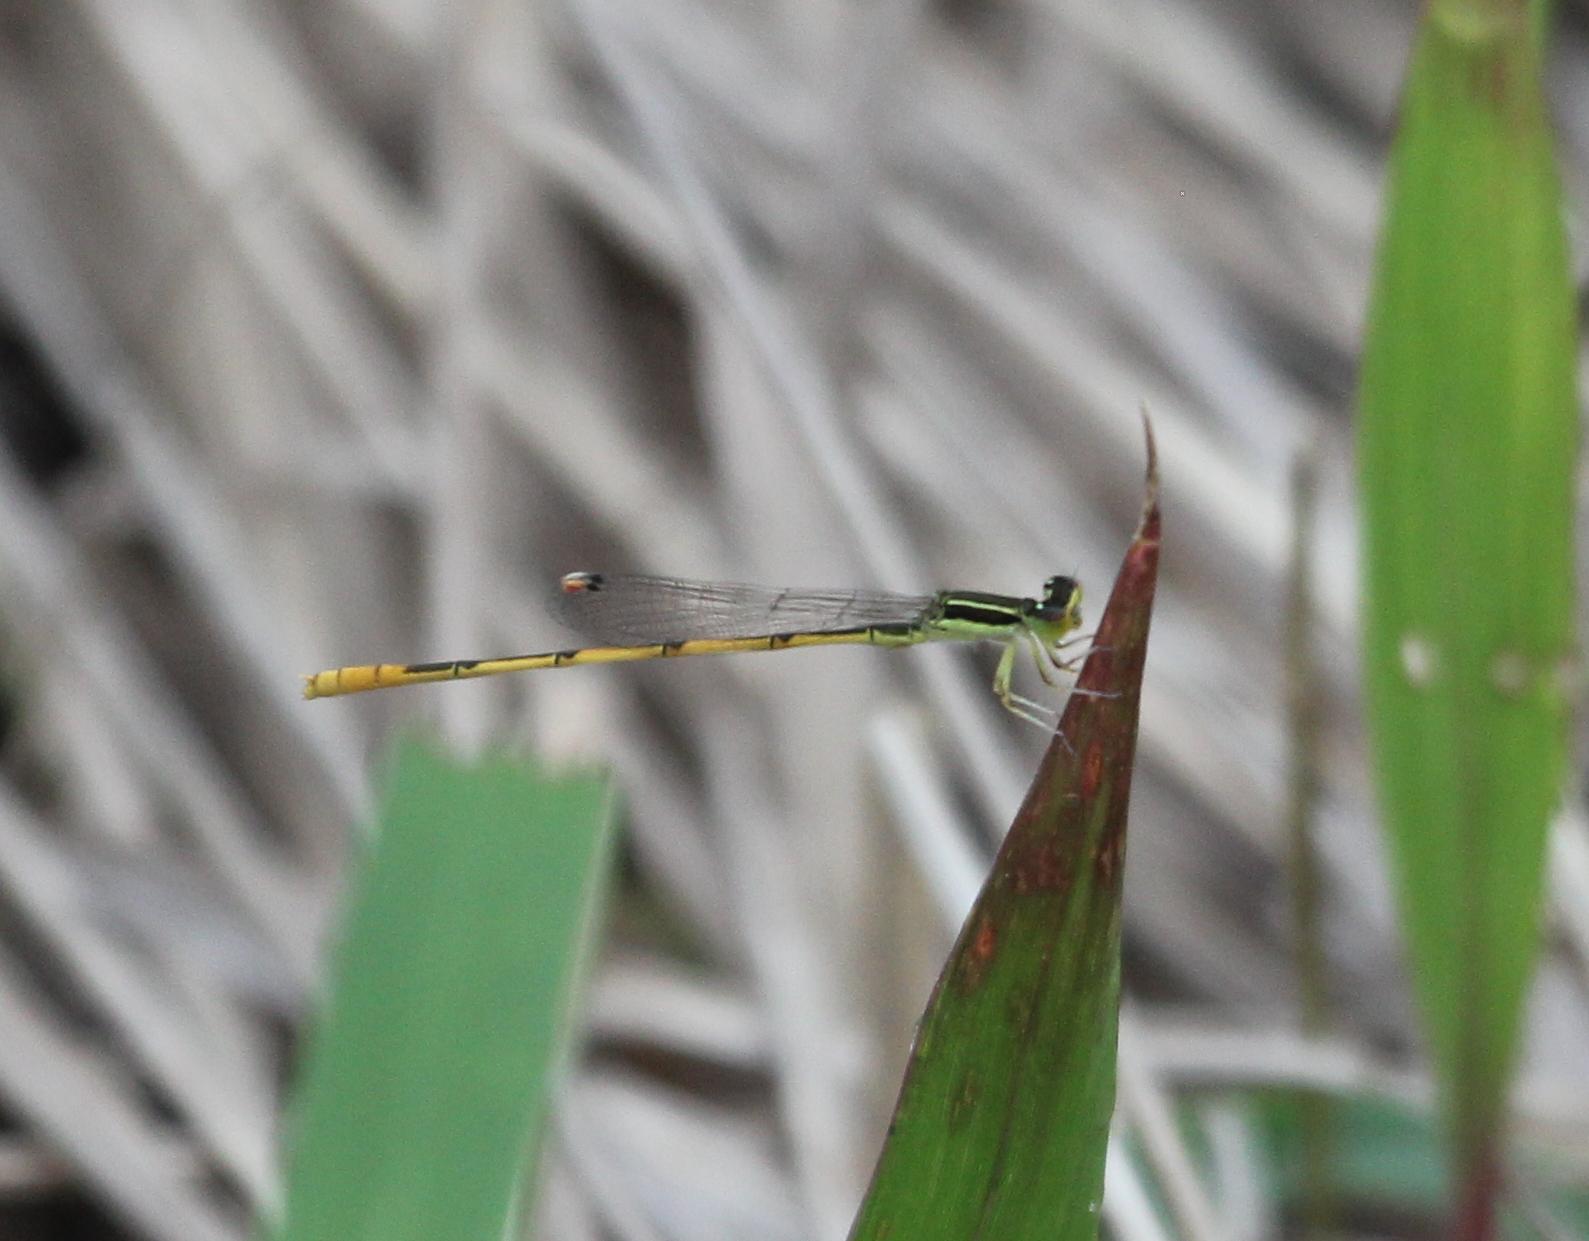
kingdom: Animalia
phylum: Arthropoda
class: Insecta
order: Odonata
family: Coenagrionidae
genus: Ischnura
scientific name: Ischnura hastata
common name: Citrine forktail
